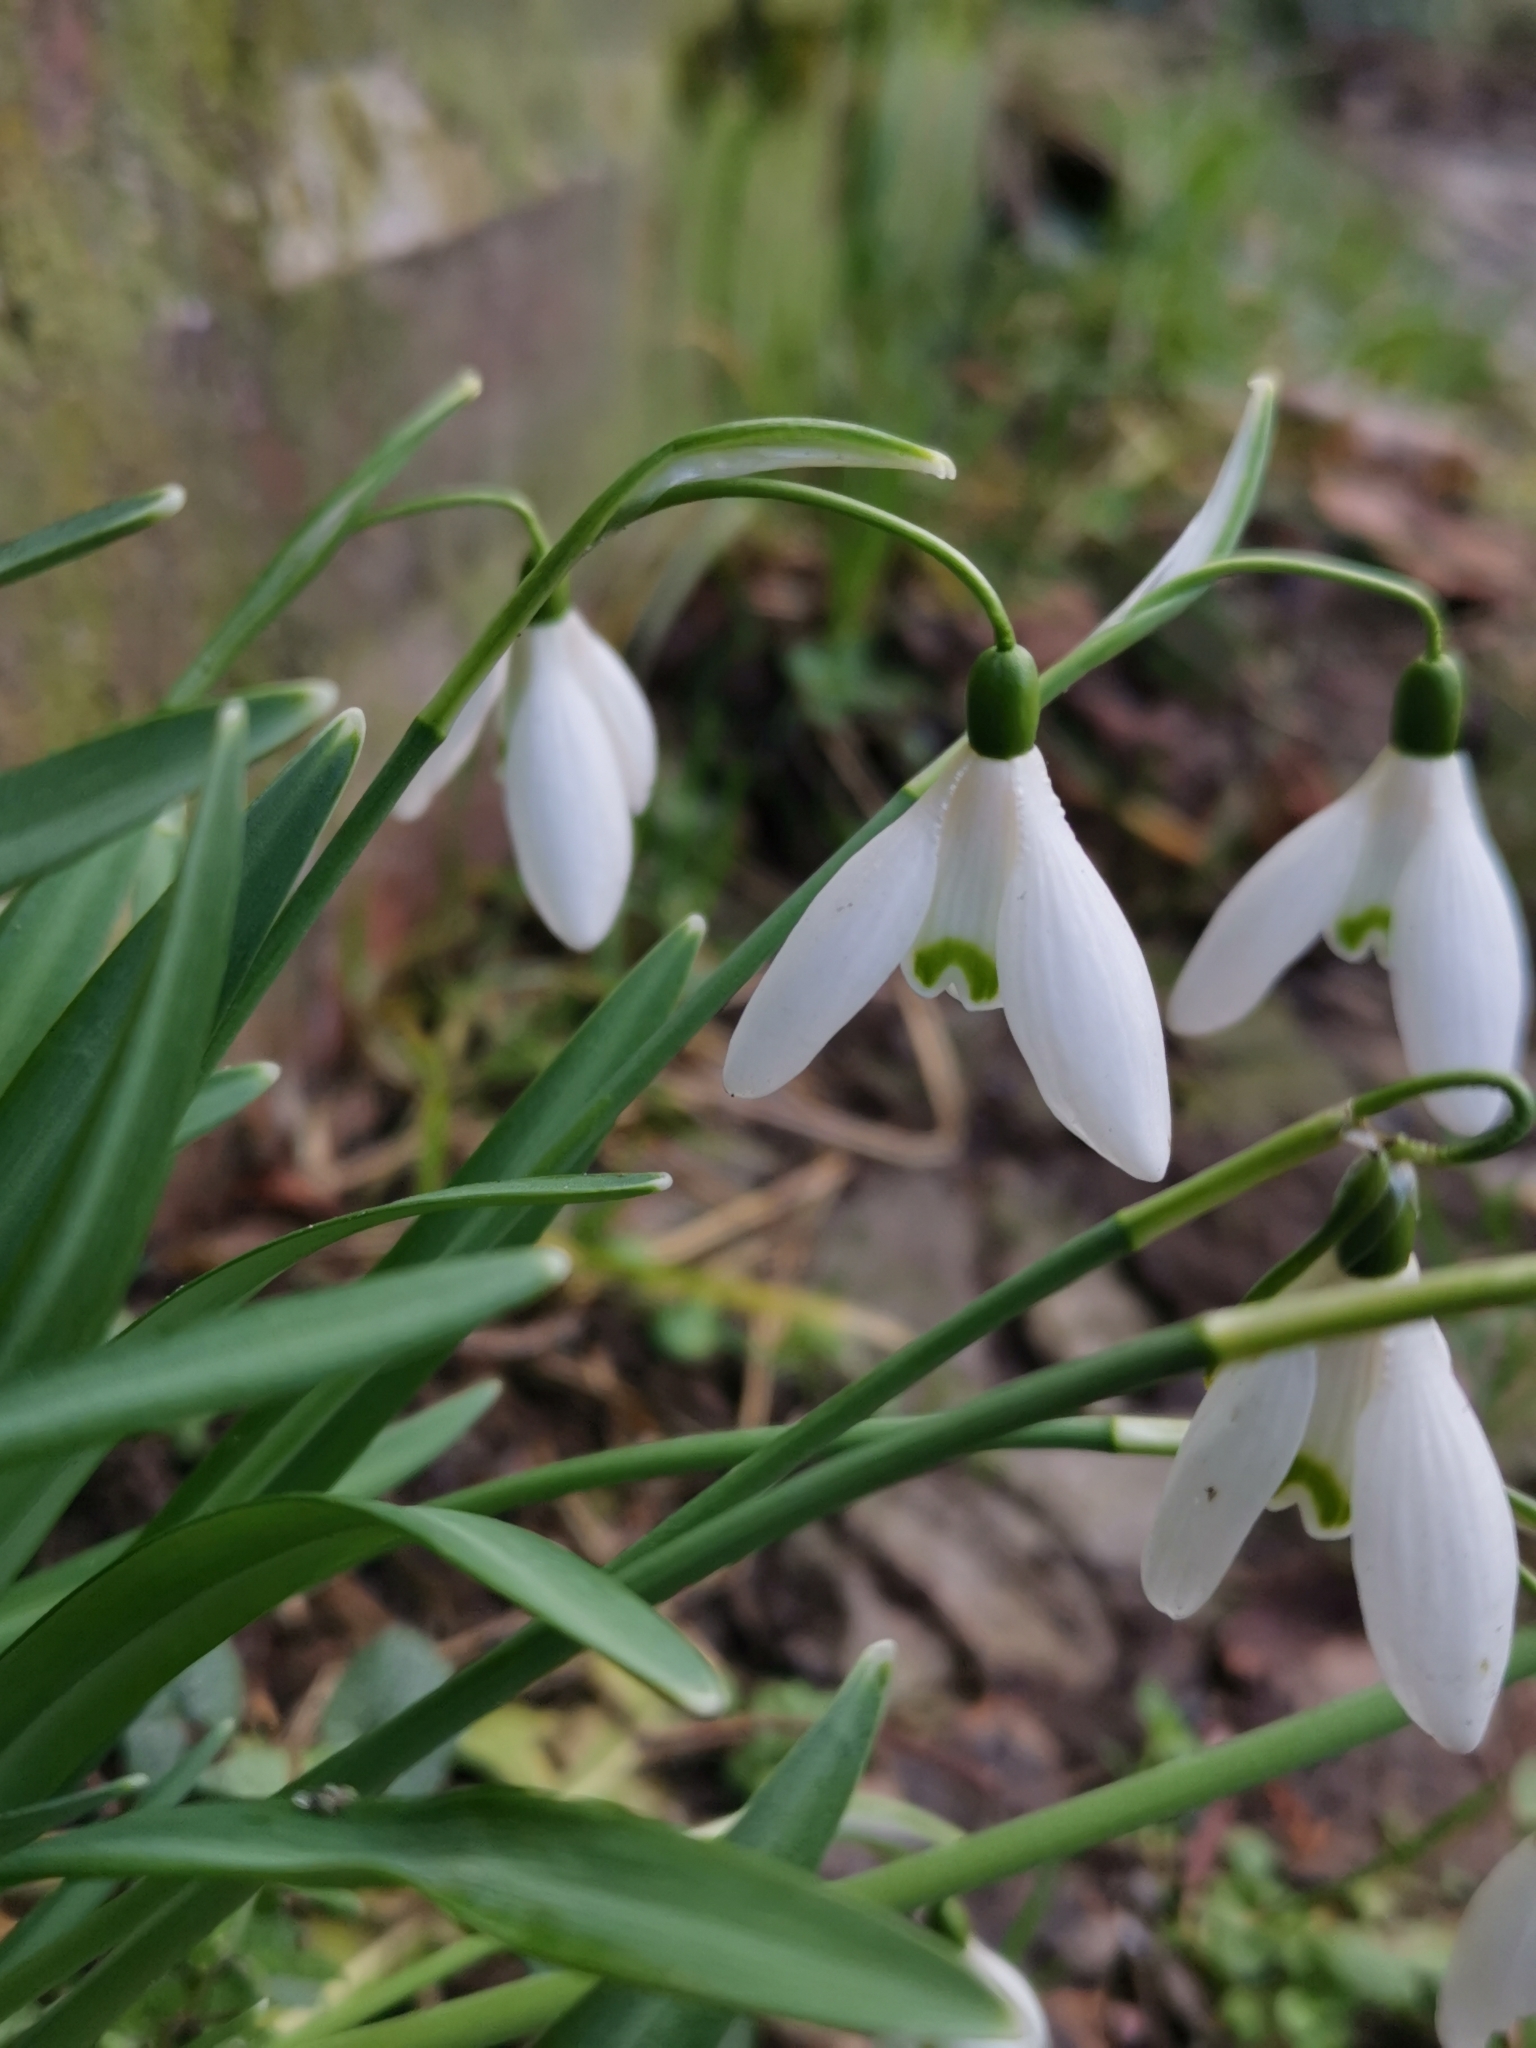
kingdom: Plantae
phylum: Tracheophyta
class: Liliopsida
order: Asparagales
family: Amaryllidaceae
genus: Galanthus
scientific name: Galanthus nivalis
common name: Snowdrop
